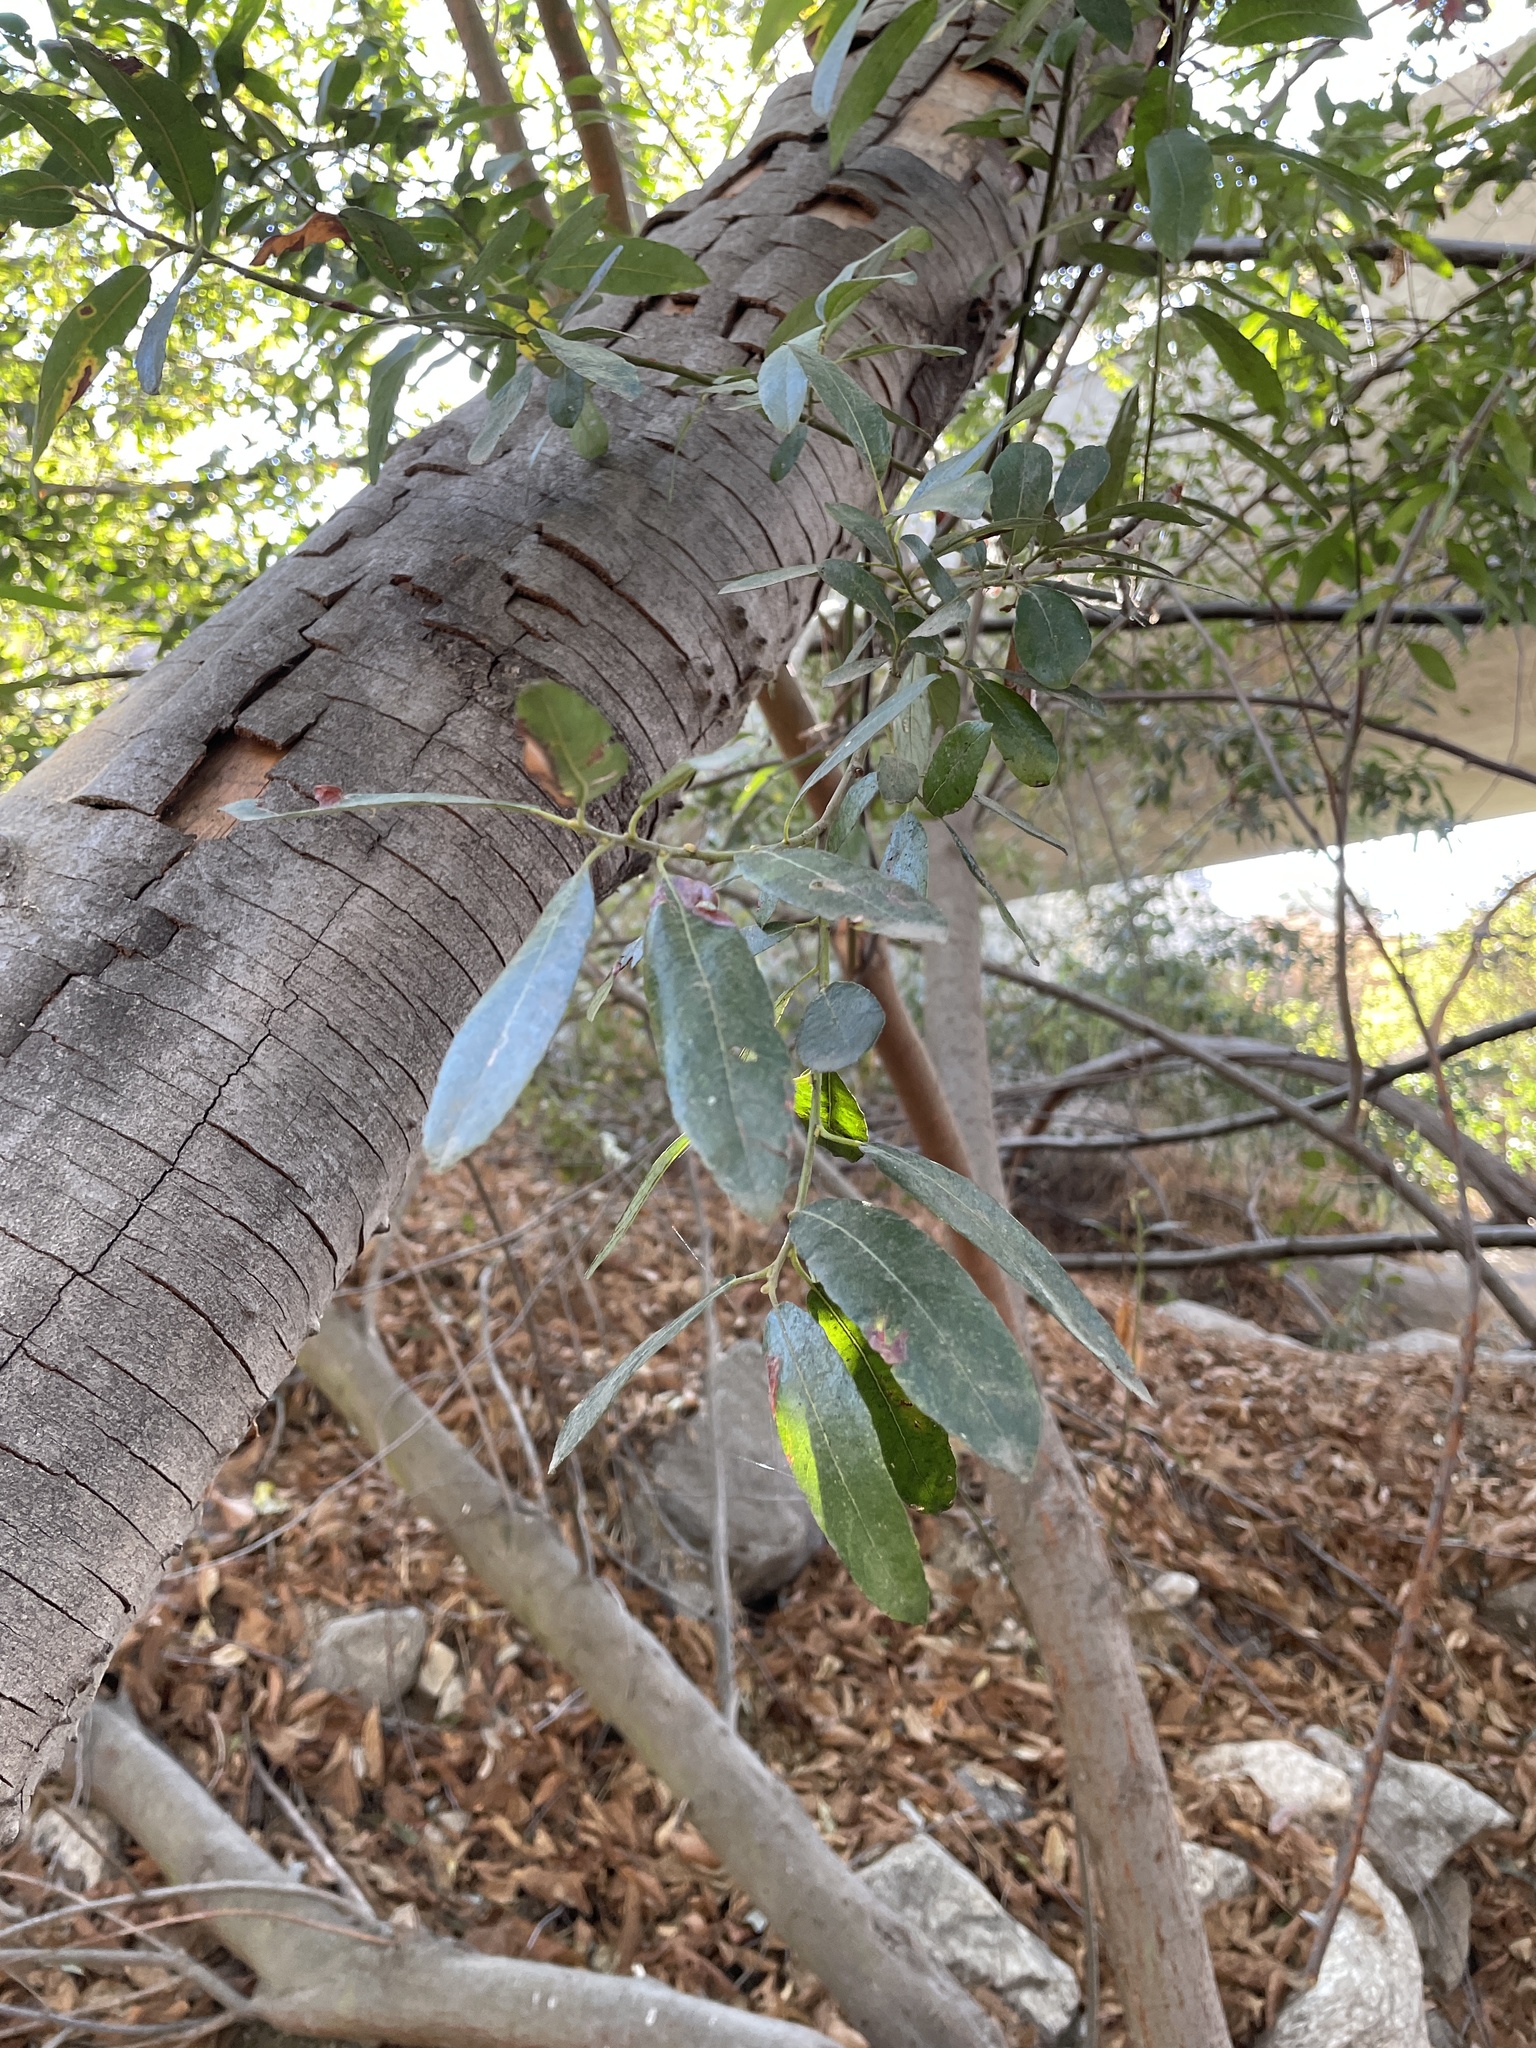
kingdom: Plantae
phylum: Tracheophyta
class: Magnoliopsida
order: Malpighiales
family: Salicaceae
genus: Salix
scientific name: Salix lasiolepis
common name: Arroyo willow
